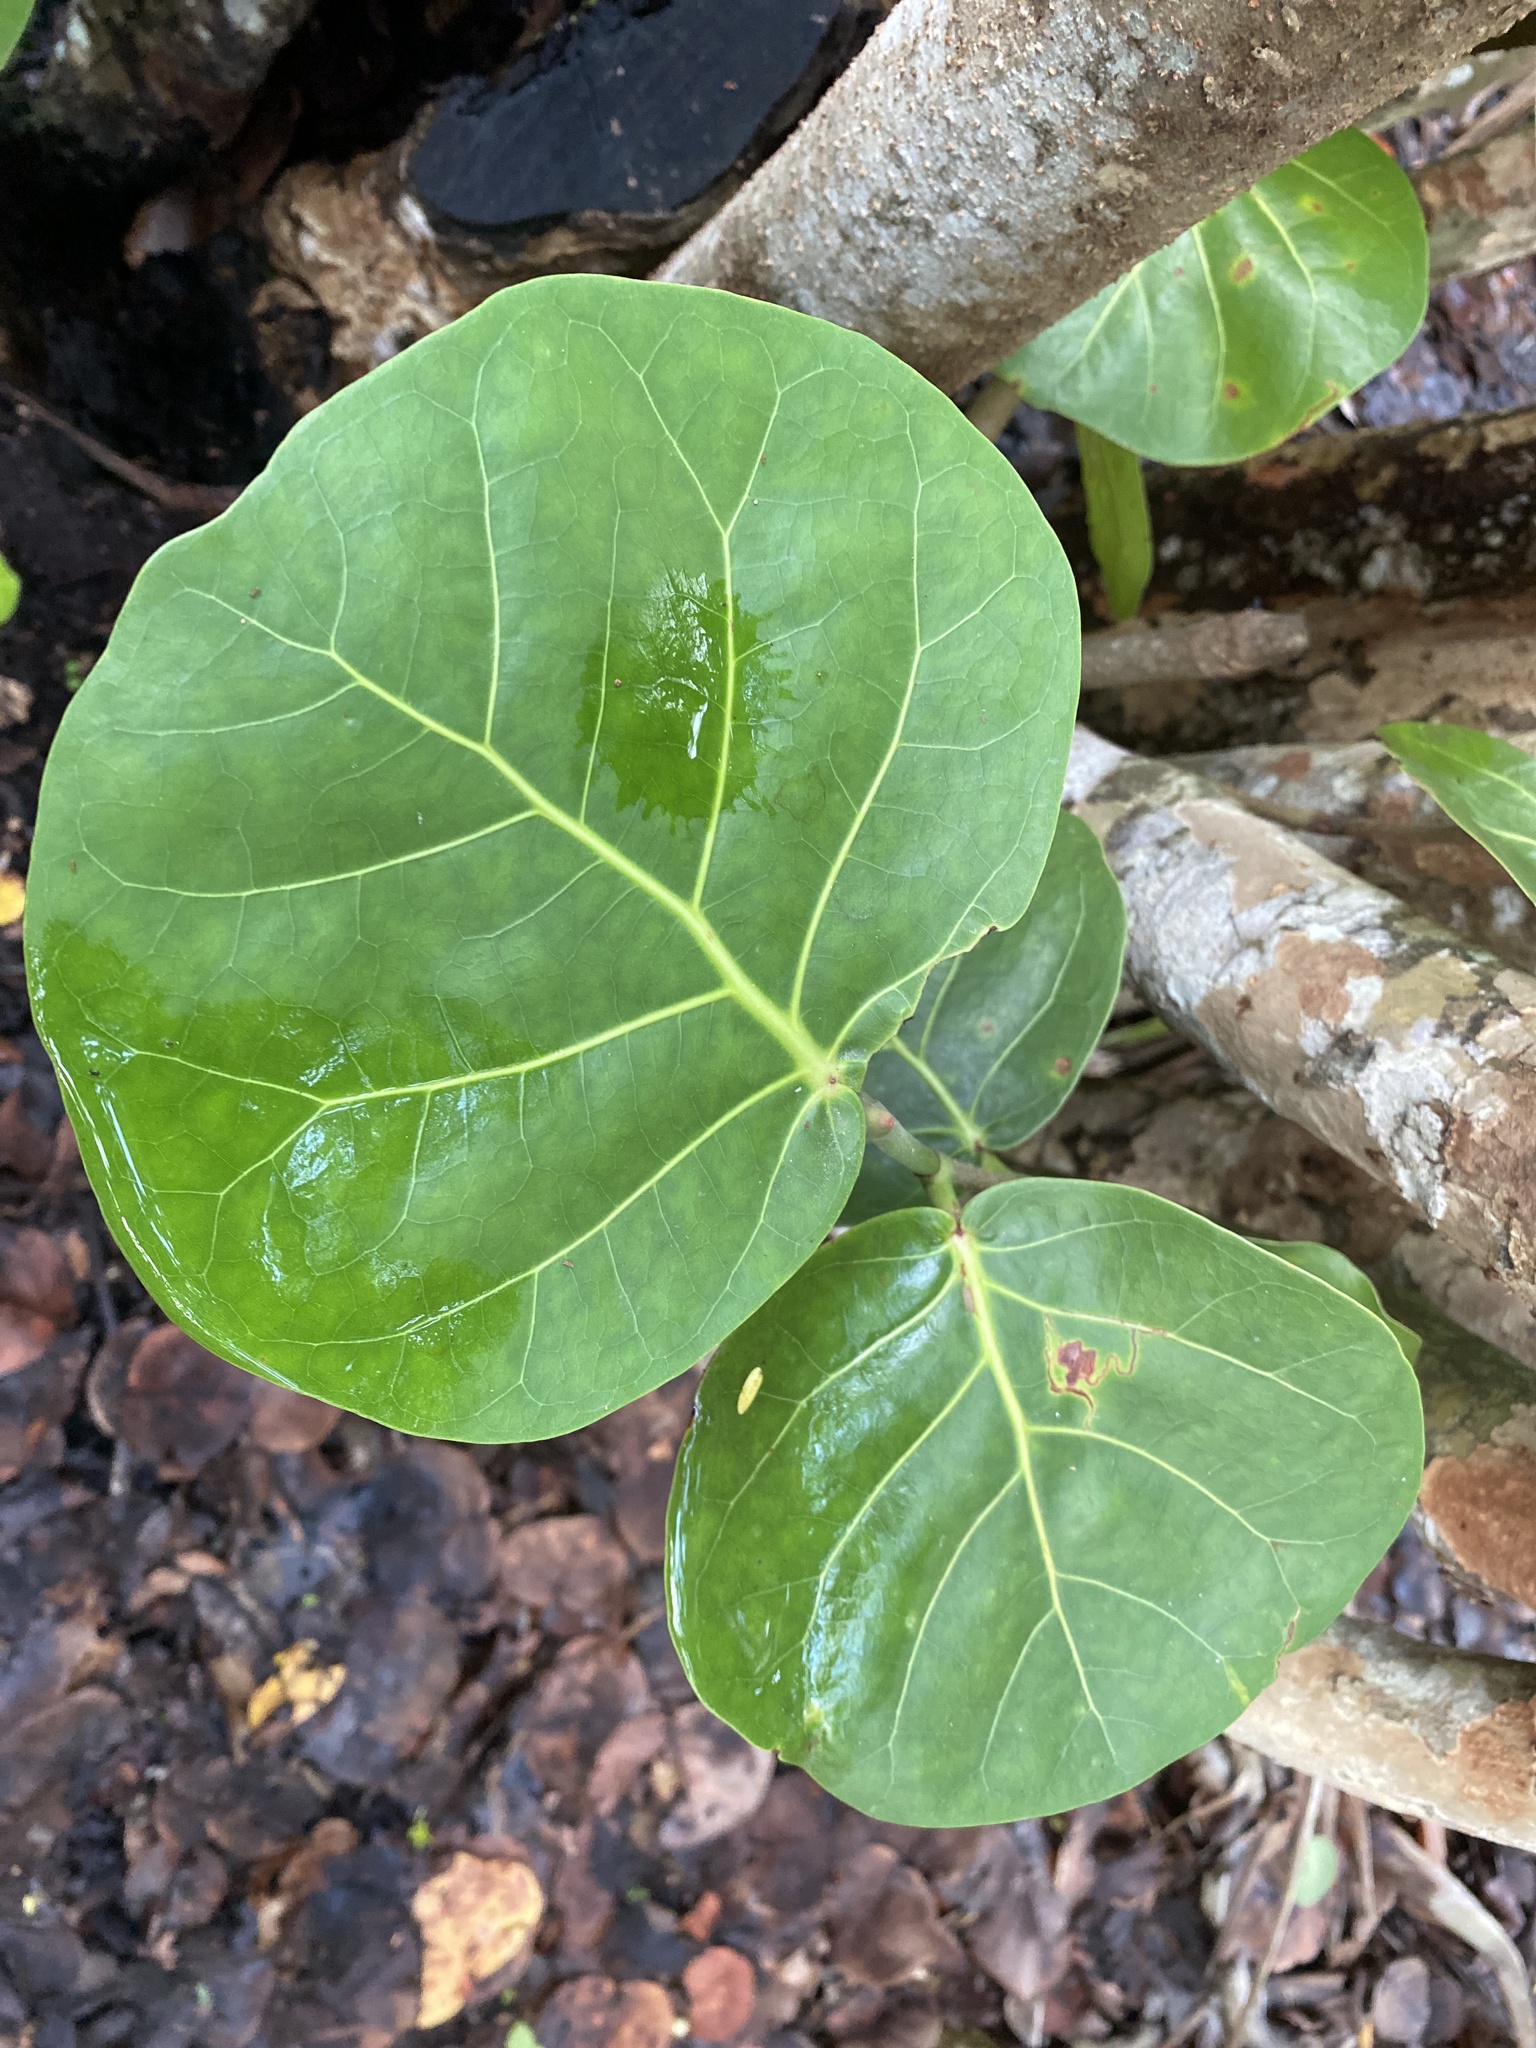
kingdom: Plantae
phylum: Tracheophyta
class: Magnoliopsida
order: Caryophyllales
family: Polygonaceae
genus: Coccoloba
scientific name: Coccoloba uvifera
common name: Seagrape
